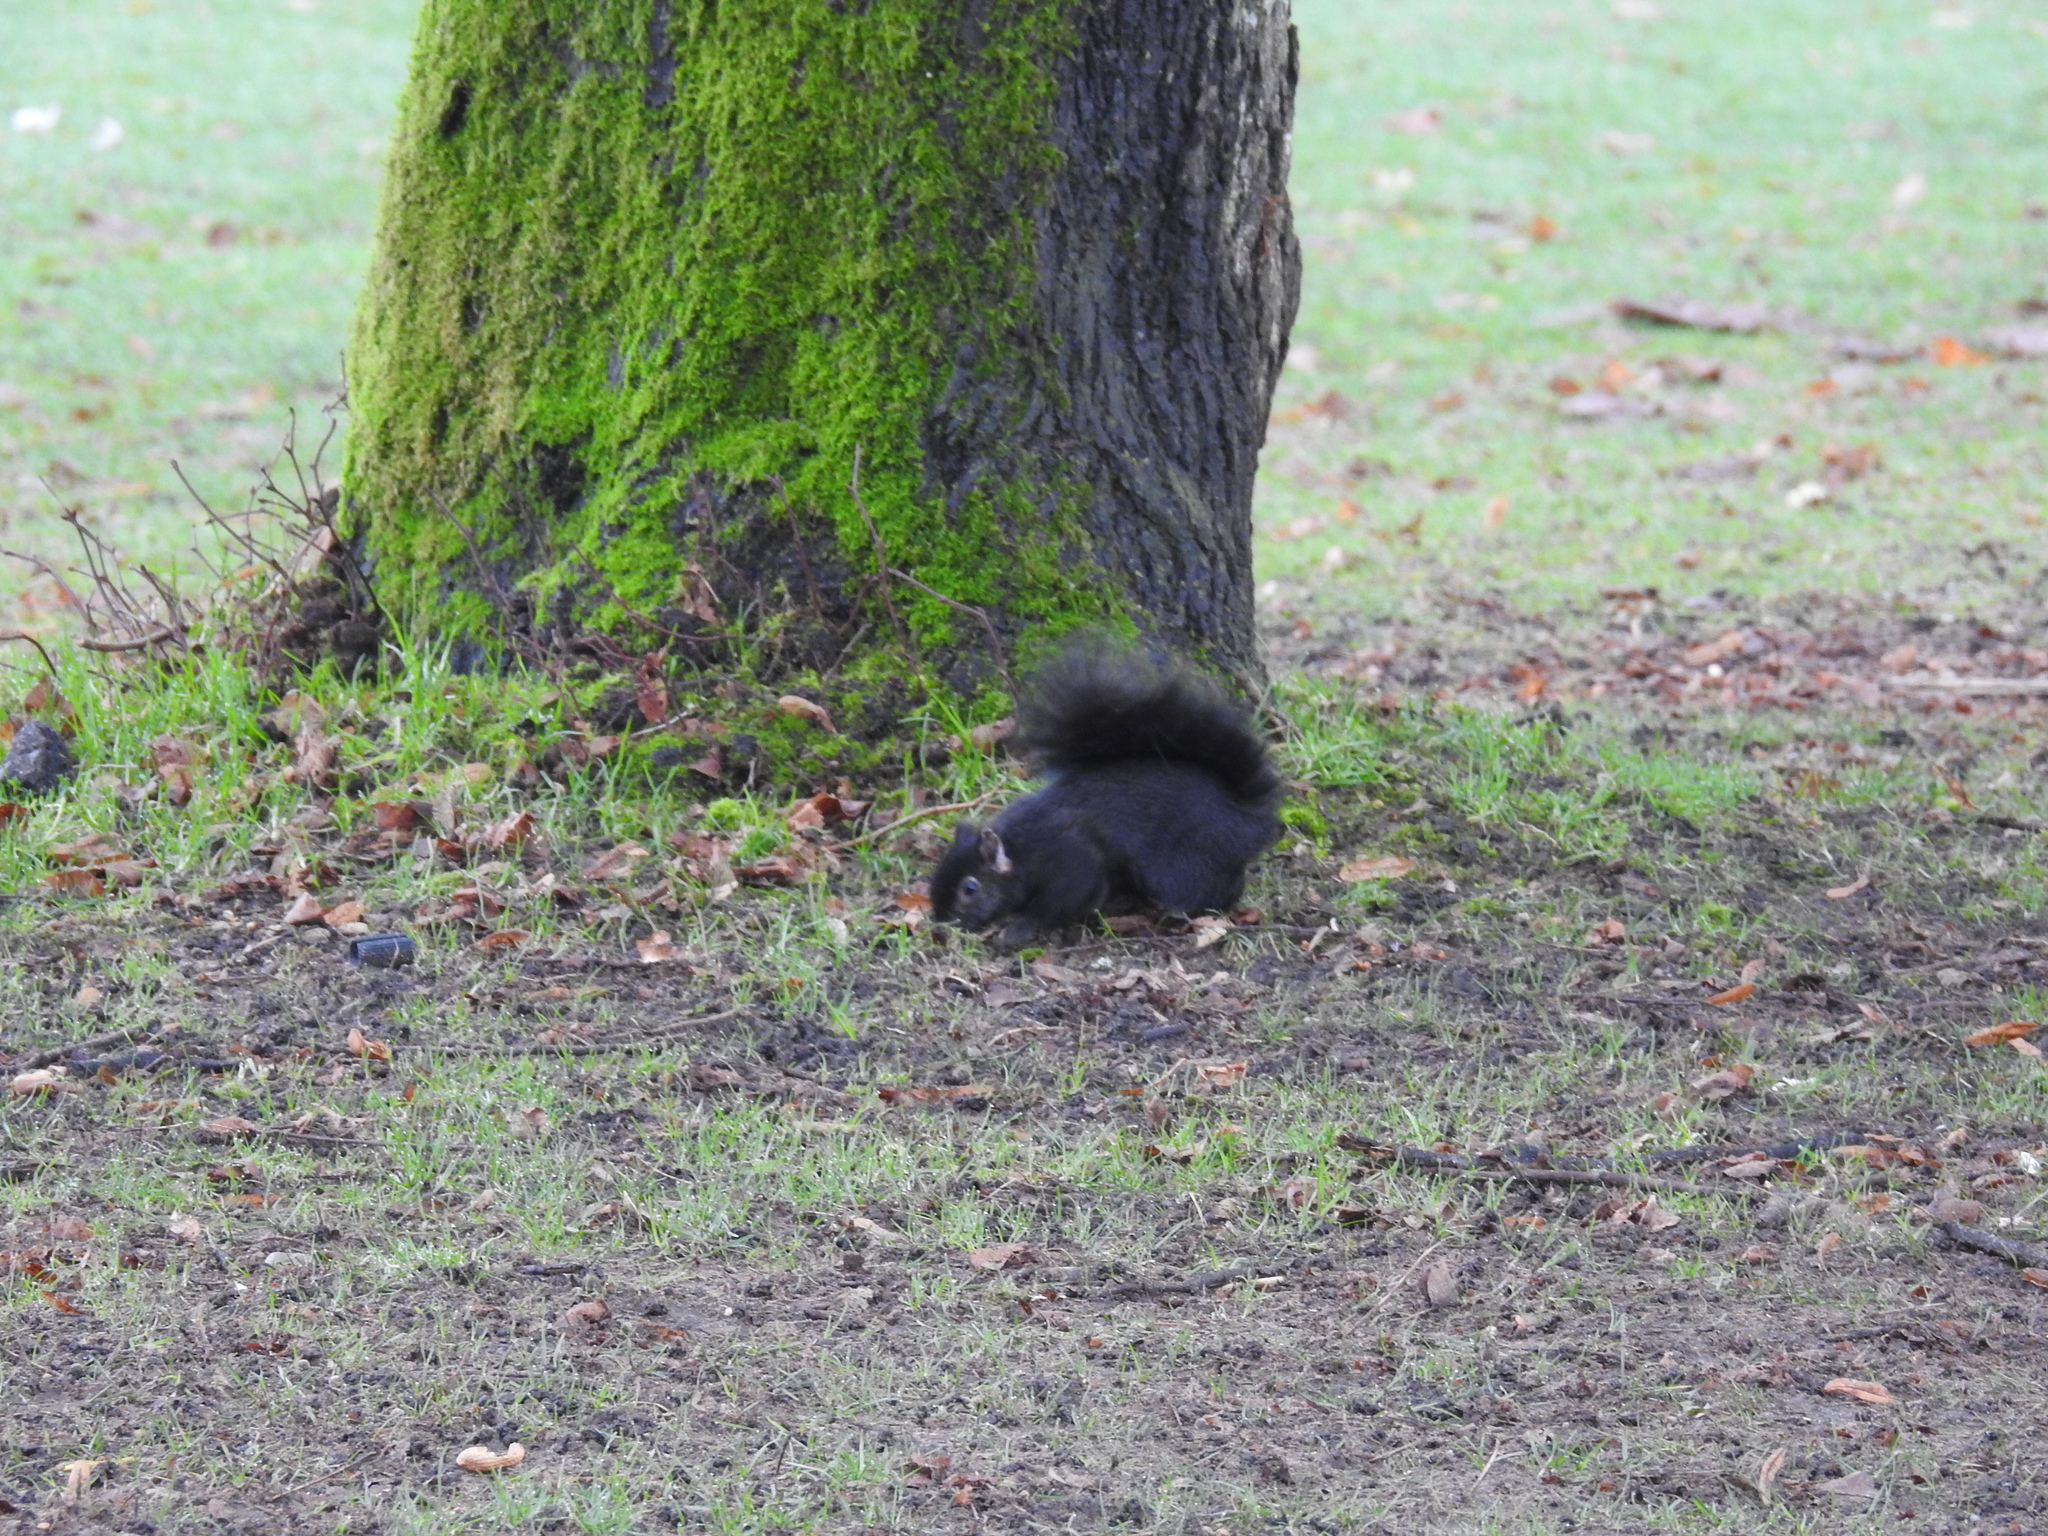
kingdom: Animalia
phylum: Chordata
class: Mammalia
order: Rodentia
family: Sciuridae
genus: Sciurus
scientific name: Sciurus carolinensis
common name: Eastern gray squirrel
